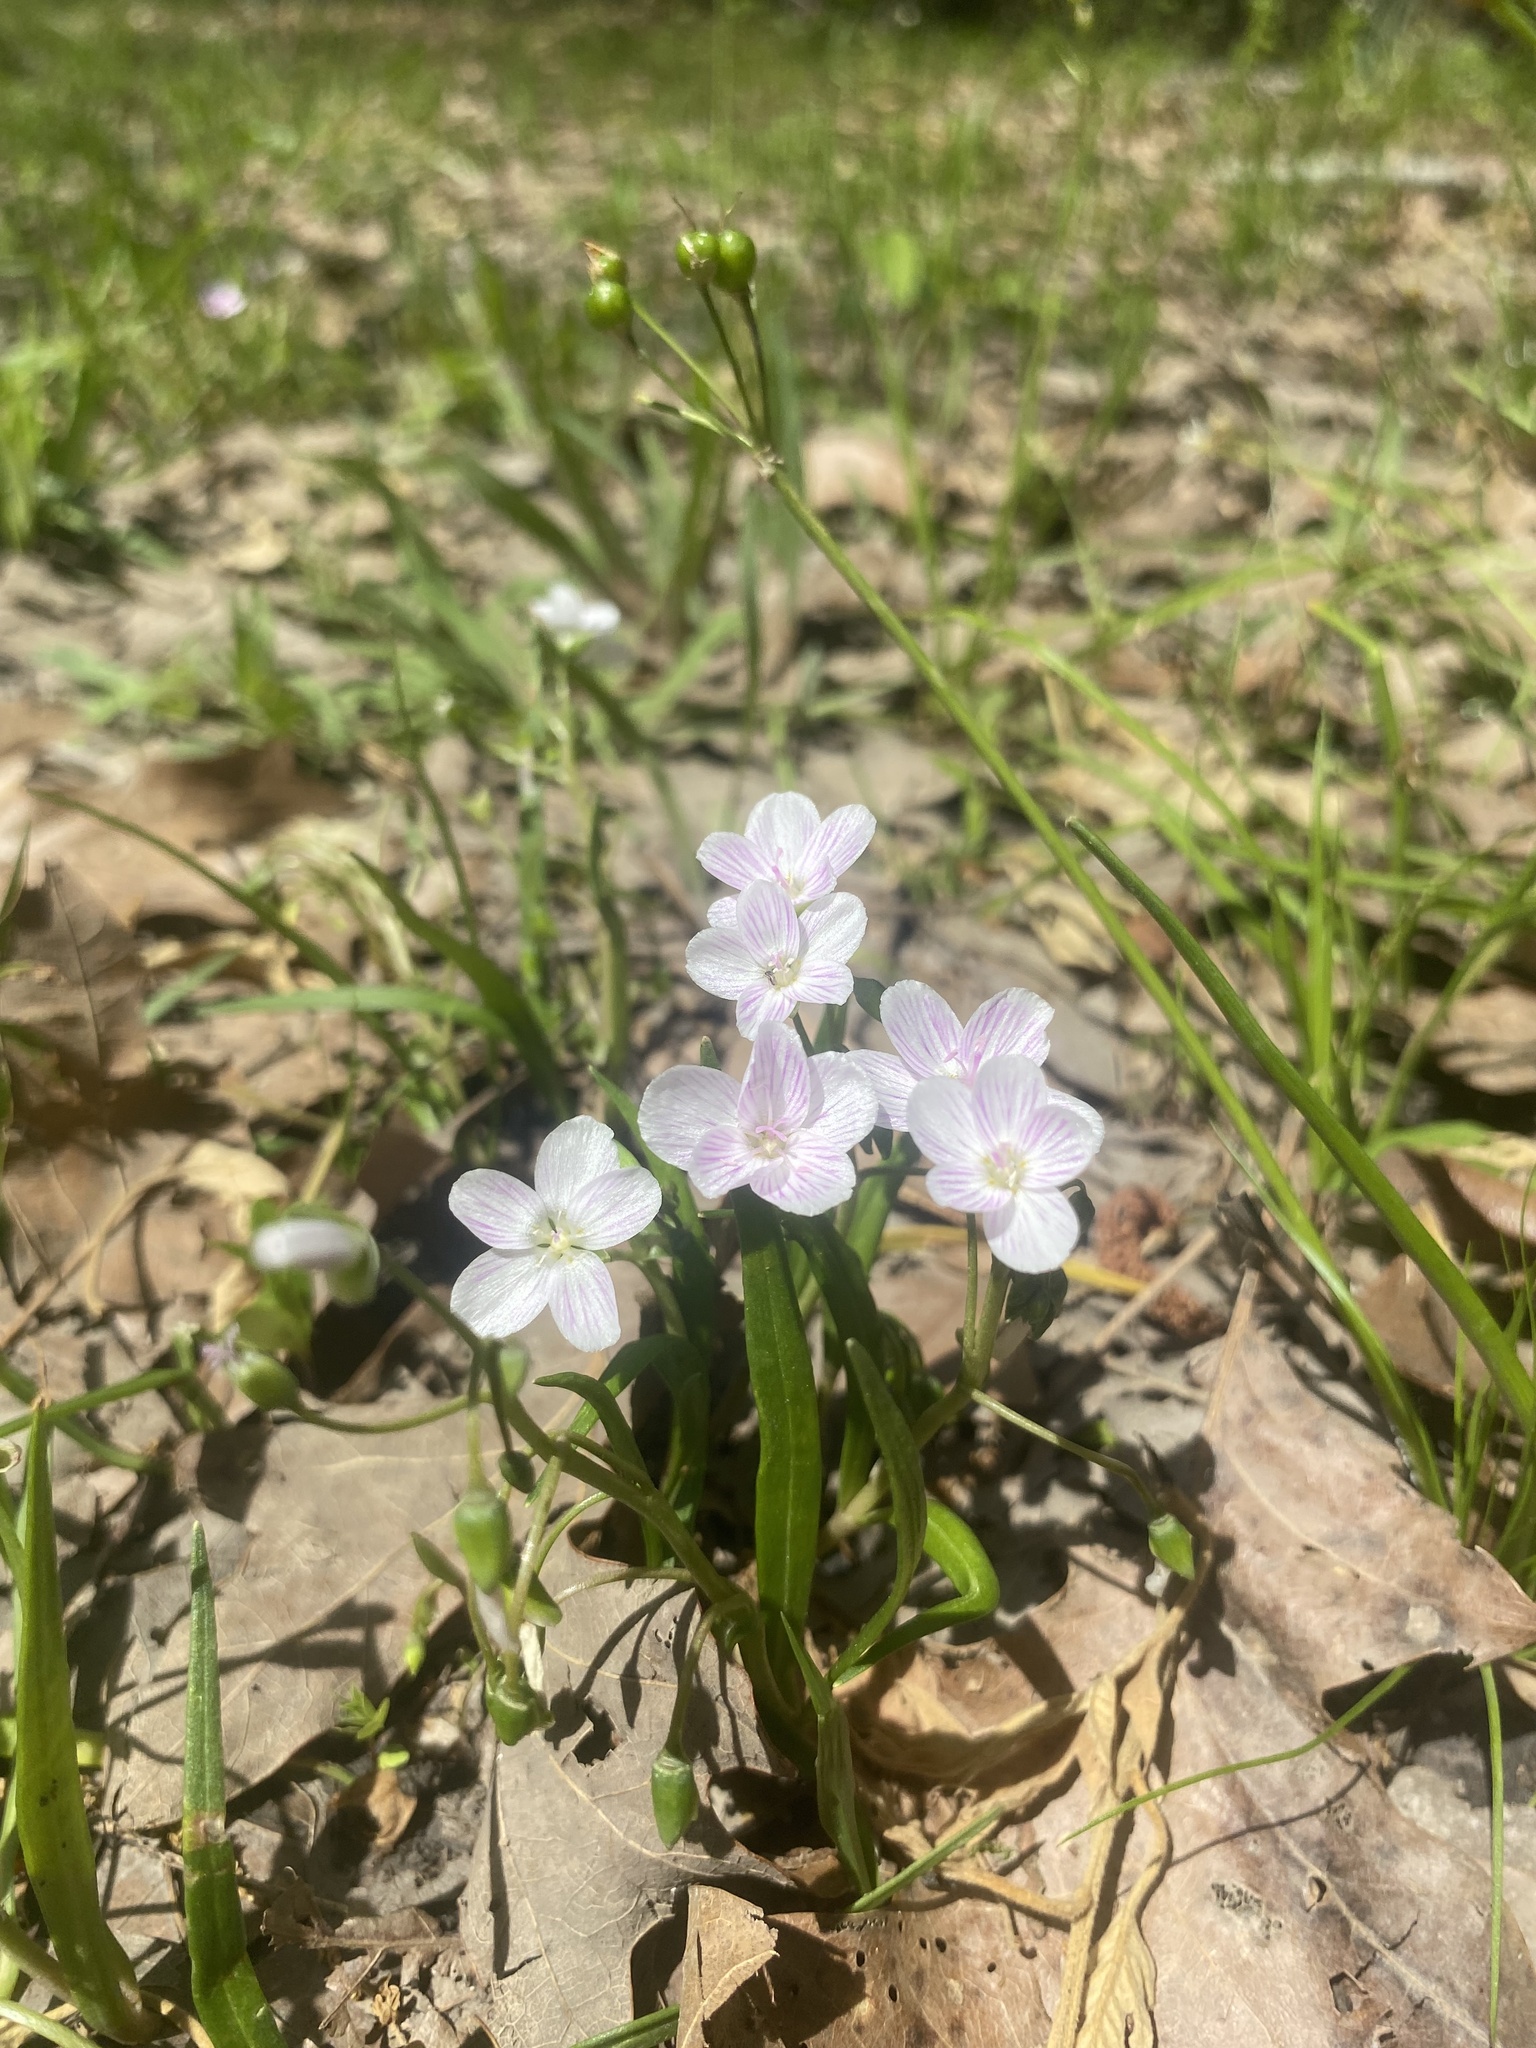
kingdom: Plantae
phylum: Tracheophyta
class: Magnoliopsida
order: Caryophyllales
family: Montiaceae
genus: Claytonia
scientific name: Claytonia virginica
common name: Virginia springbeauty
